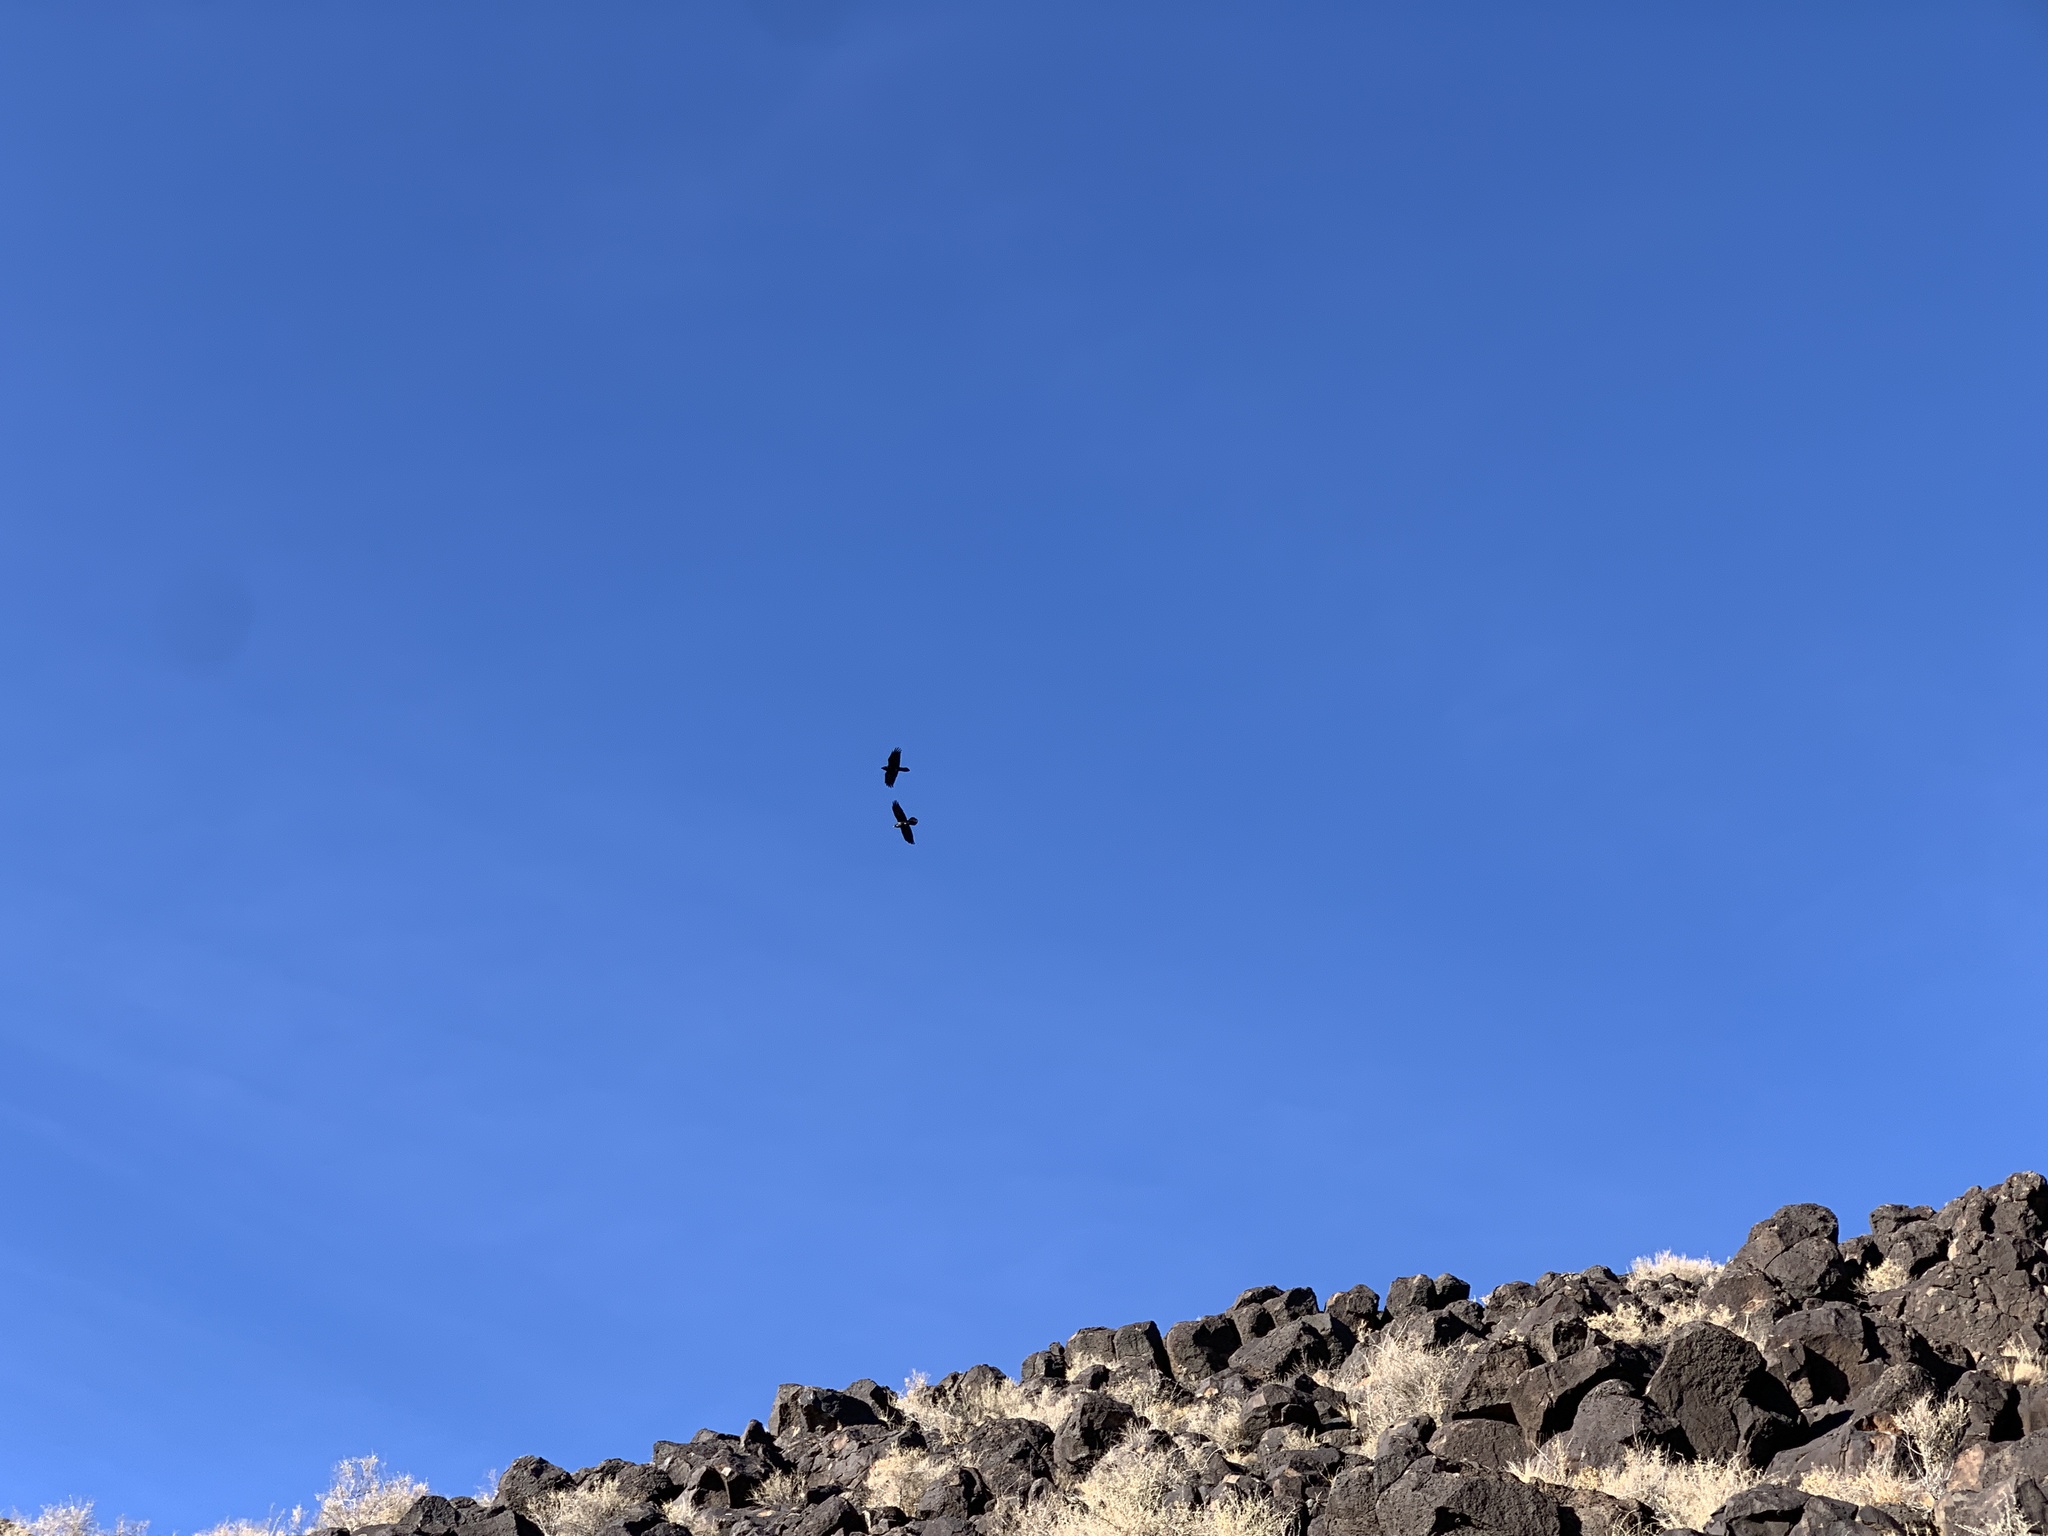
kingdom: Animalia
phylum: Chordata
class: Aves
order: Passeriformes
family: Corvidae
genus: Corvus
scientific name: Corvus corax
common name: Common raven
